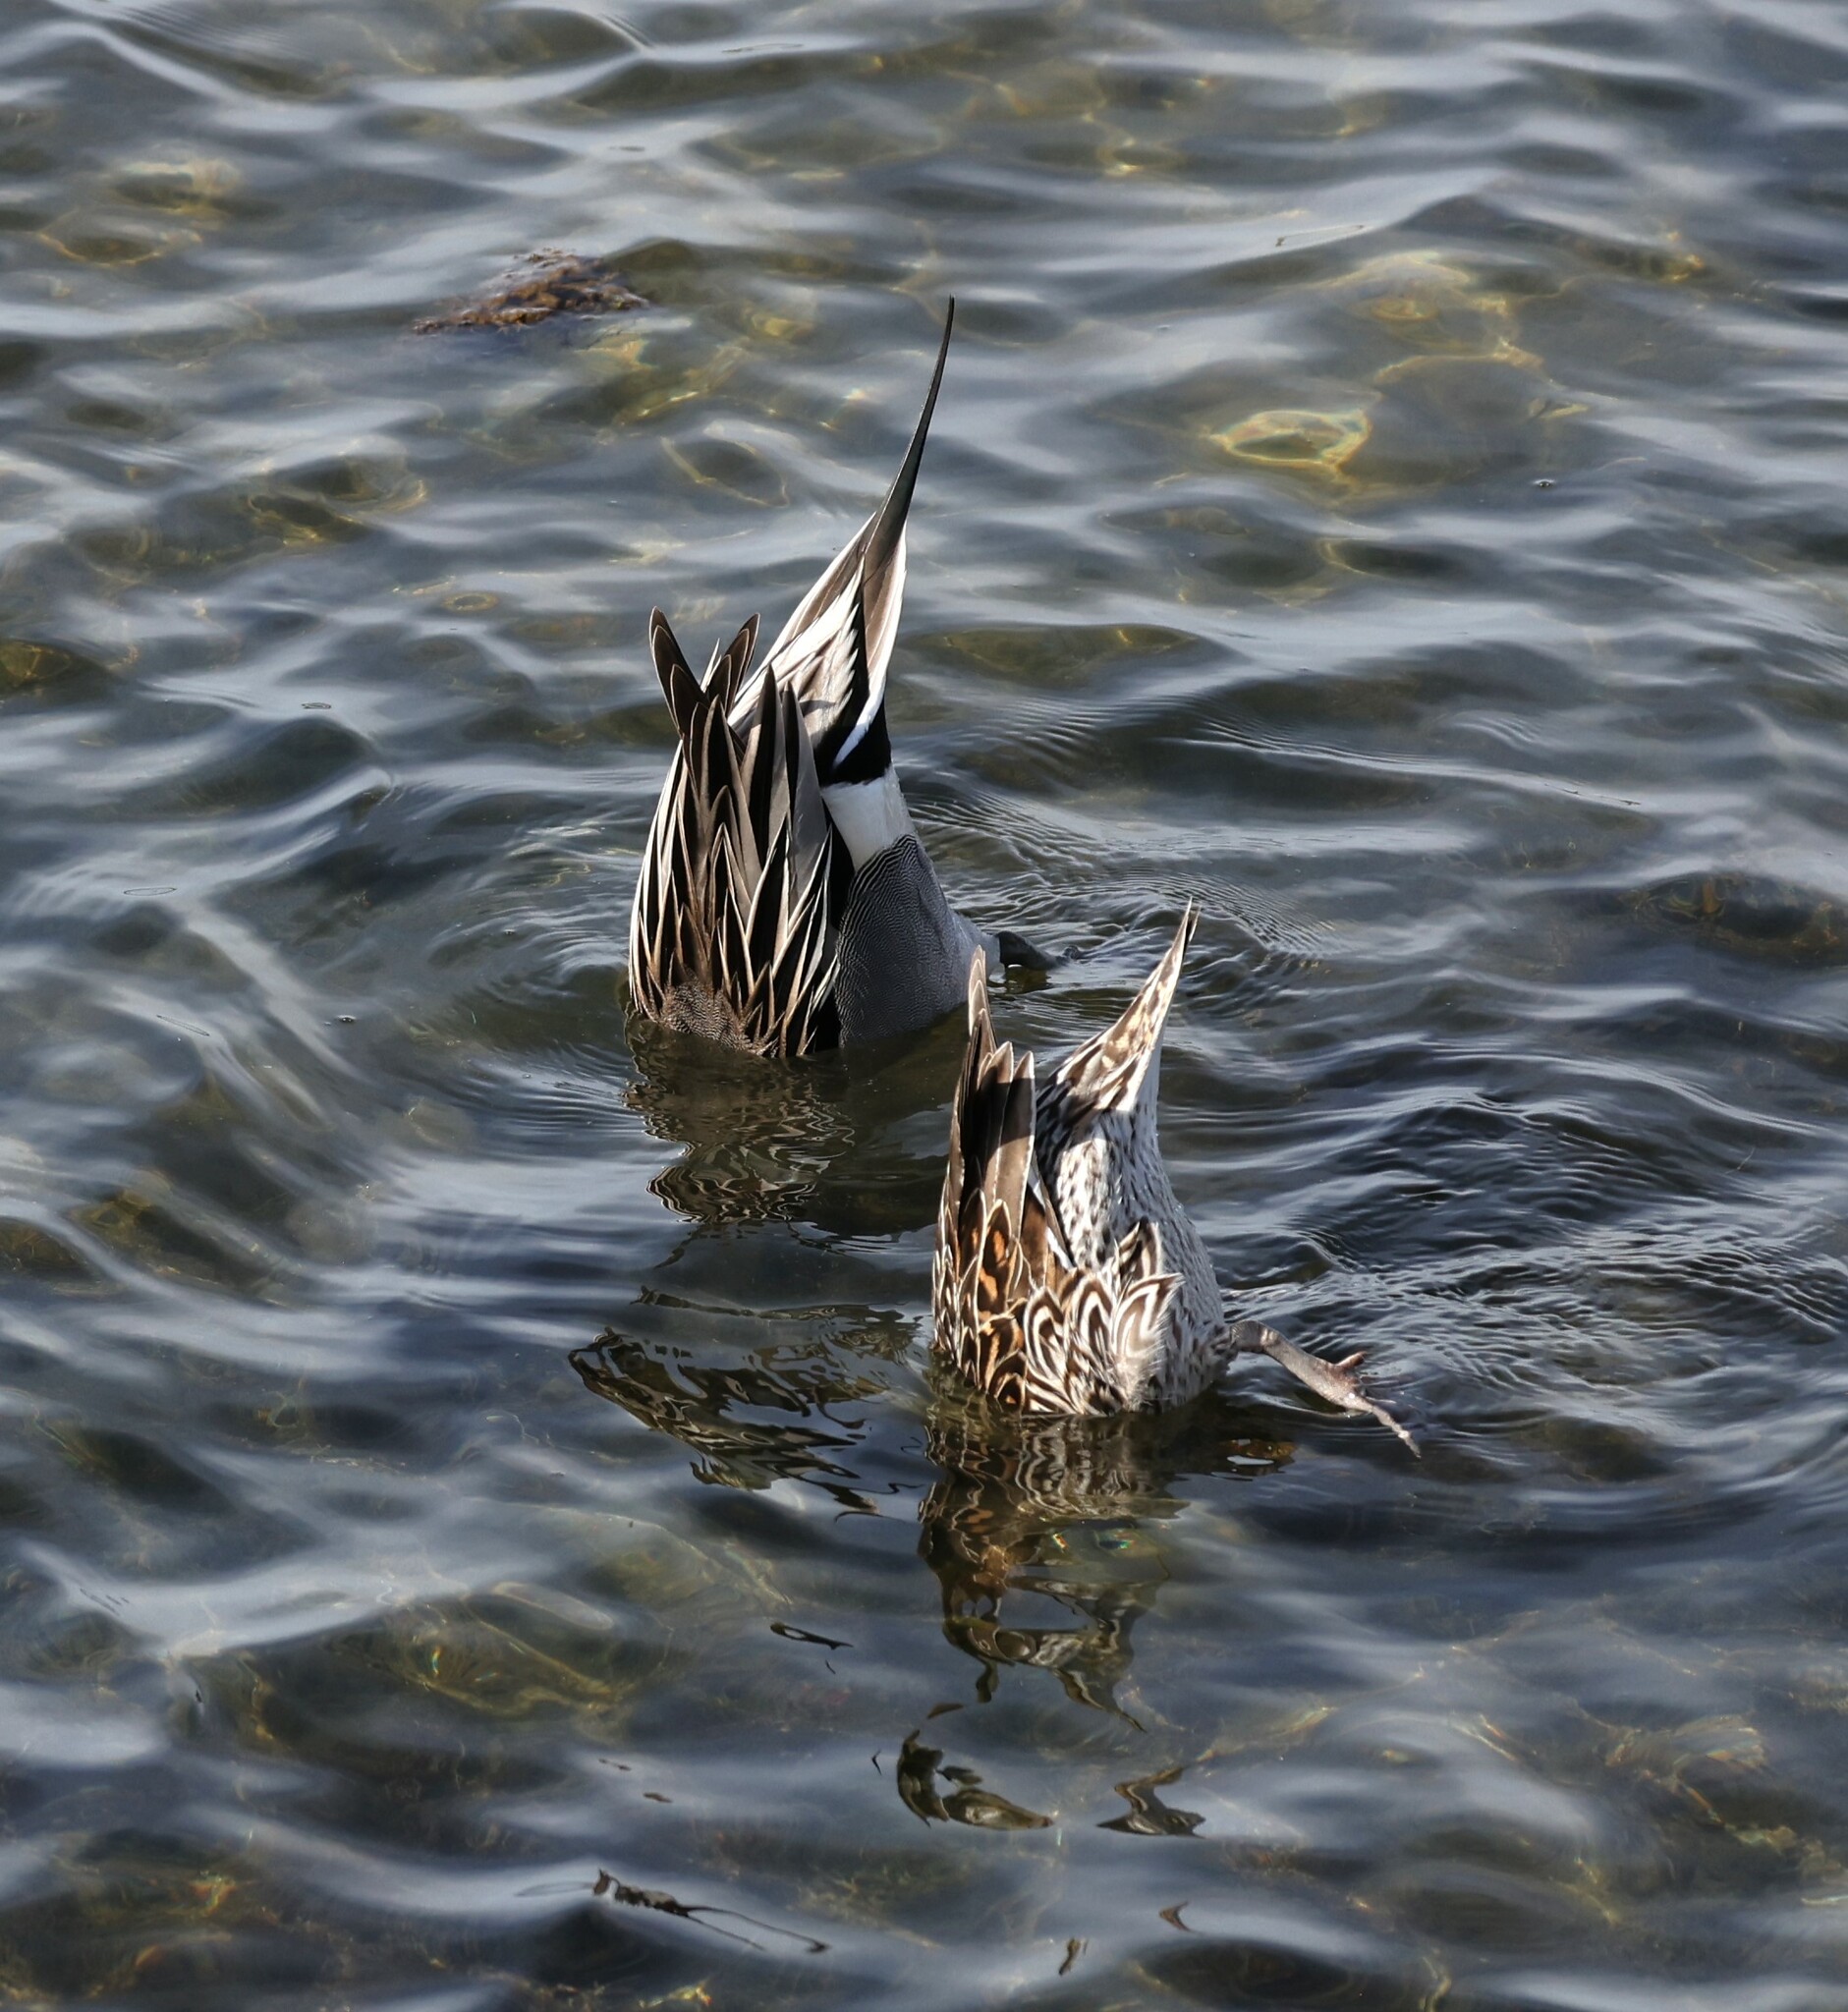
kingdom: Animalia
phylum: Chordata
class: Aves
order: Anseriformes
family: Anatidae
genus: Anas
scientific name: Anas acuta
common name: Northern pintail
